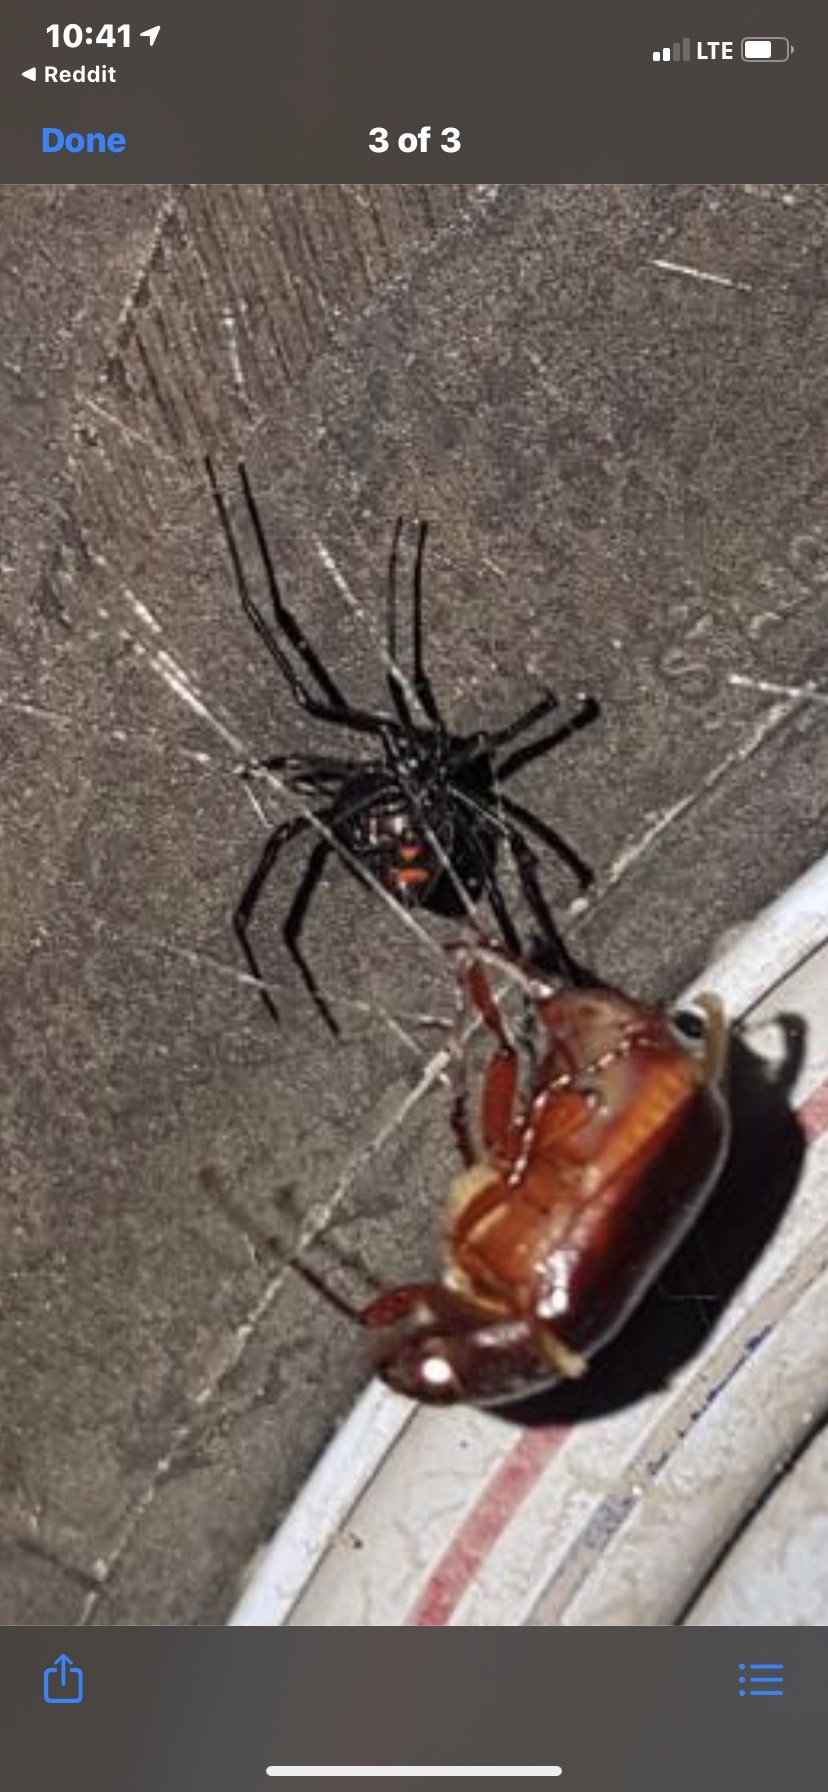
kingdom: Animalia
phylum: Arthropoda
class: Arachnida
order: Araneae
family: Theridiidae
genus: Latrodectus
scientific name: Latrodectus variolus
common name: Northern black widow
